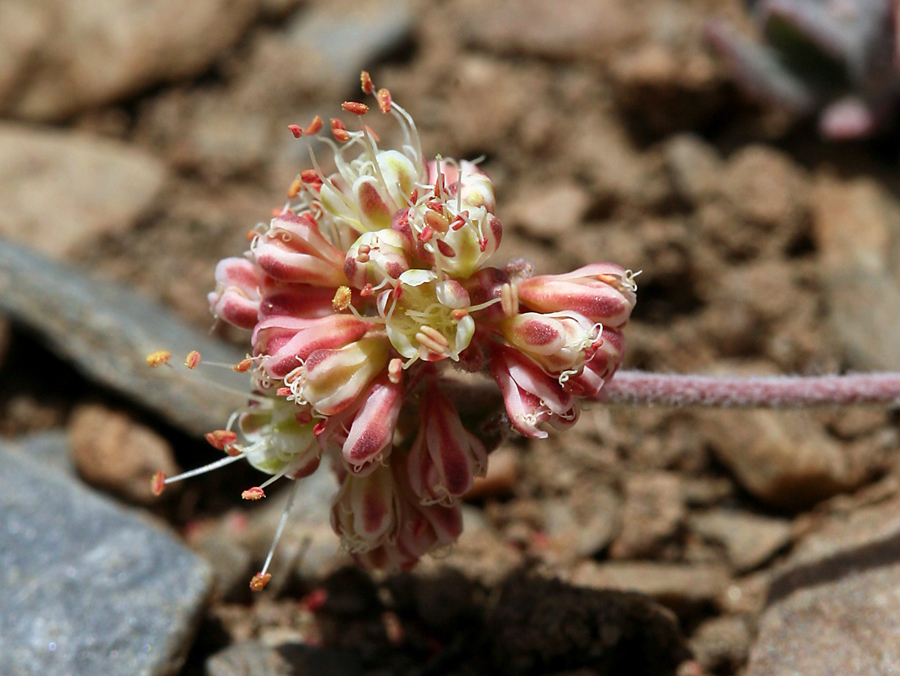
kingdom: Plantae
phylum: Tracheophyta
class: Magnoliopsida
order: Caryophyllales
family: Polygonaceae
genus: Eriogonum
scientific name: Eriogonum umbellatum
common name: Sulfur-buckwheat
